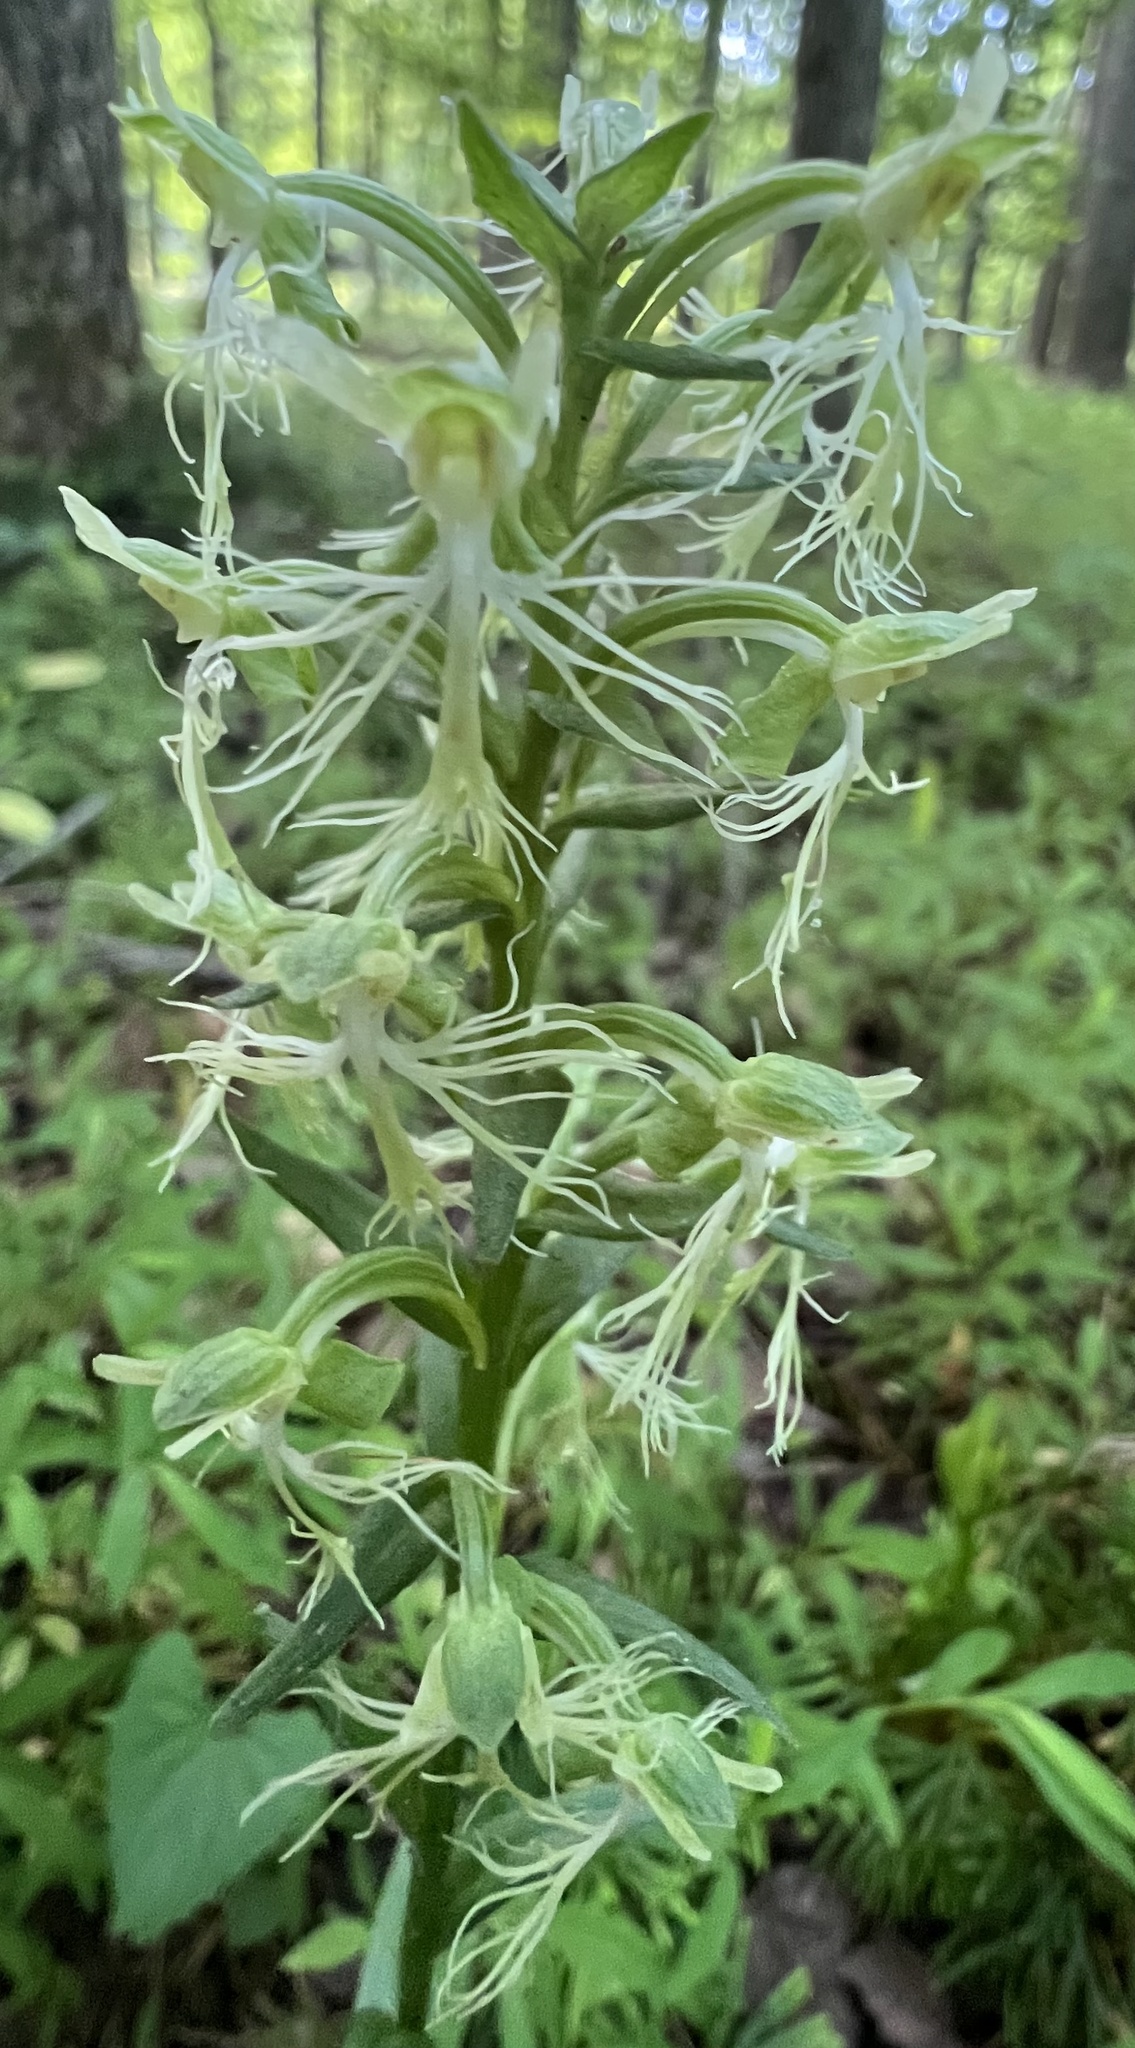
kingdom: Plantae
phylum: Tracheophyta
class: Liliopsida
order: Asparagales
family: Orchidaceae
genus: Platanthera
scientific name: Platanthera lacera
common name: Green fringed orchid
